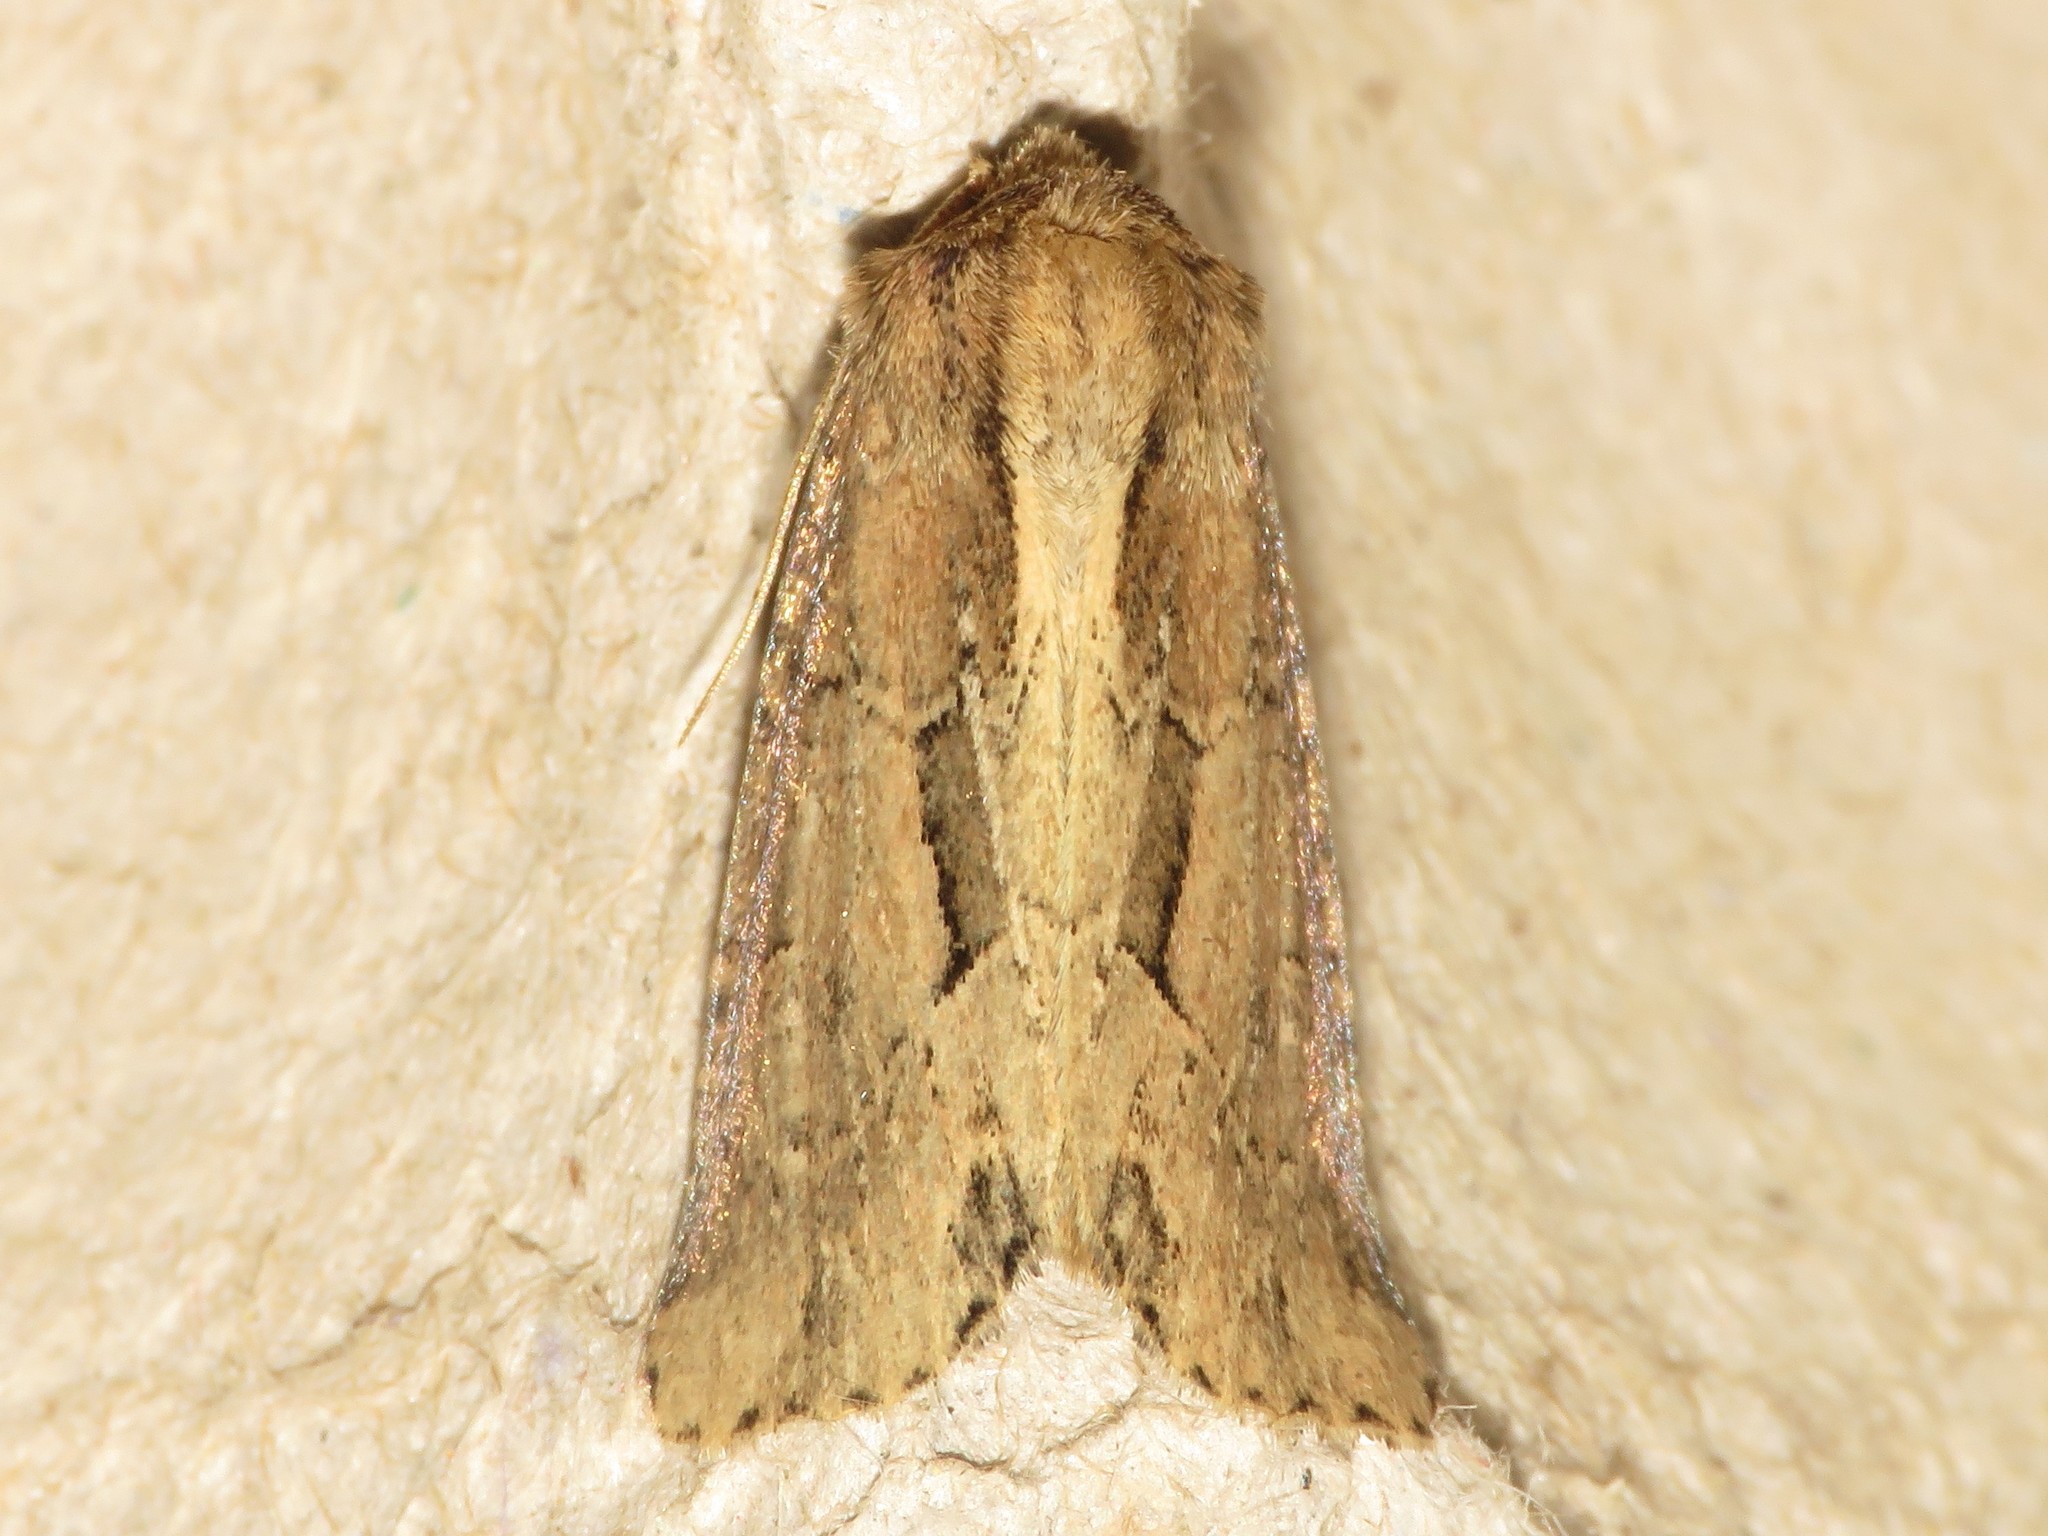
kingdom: Animalia
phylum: Arthropoda
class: Insecta
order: Lepidoptera
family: Noctuidae
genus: Xylomoia
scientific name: Xylomoia chagnoni
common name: Reed canary grass borer moth
